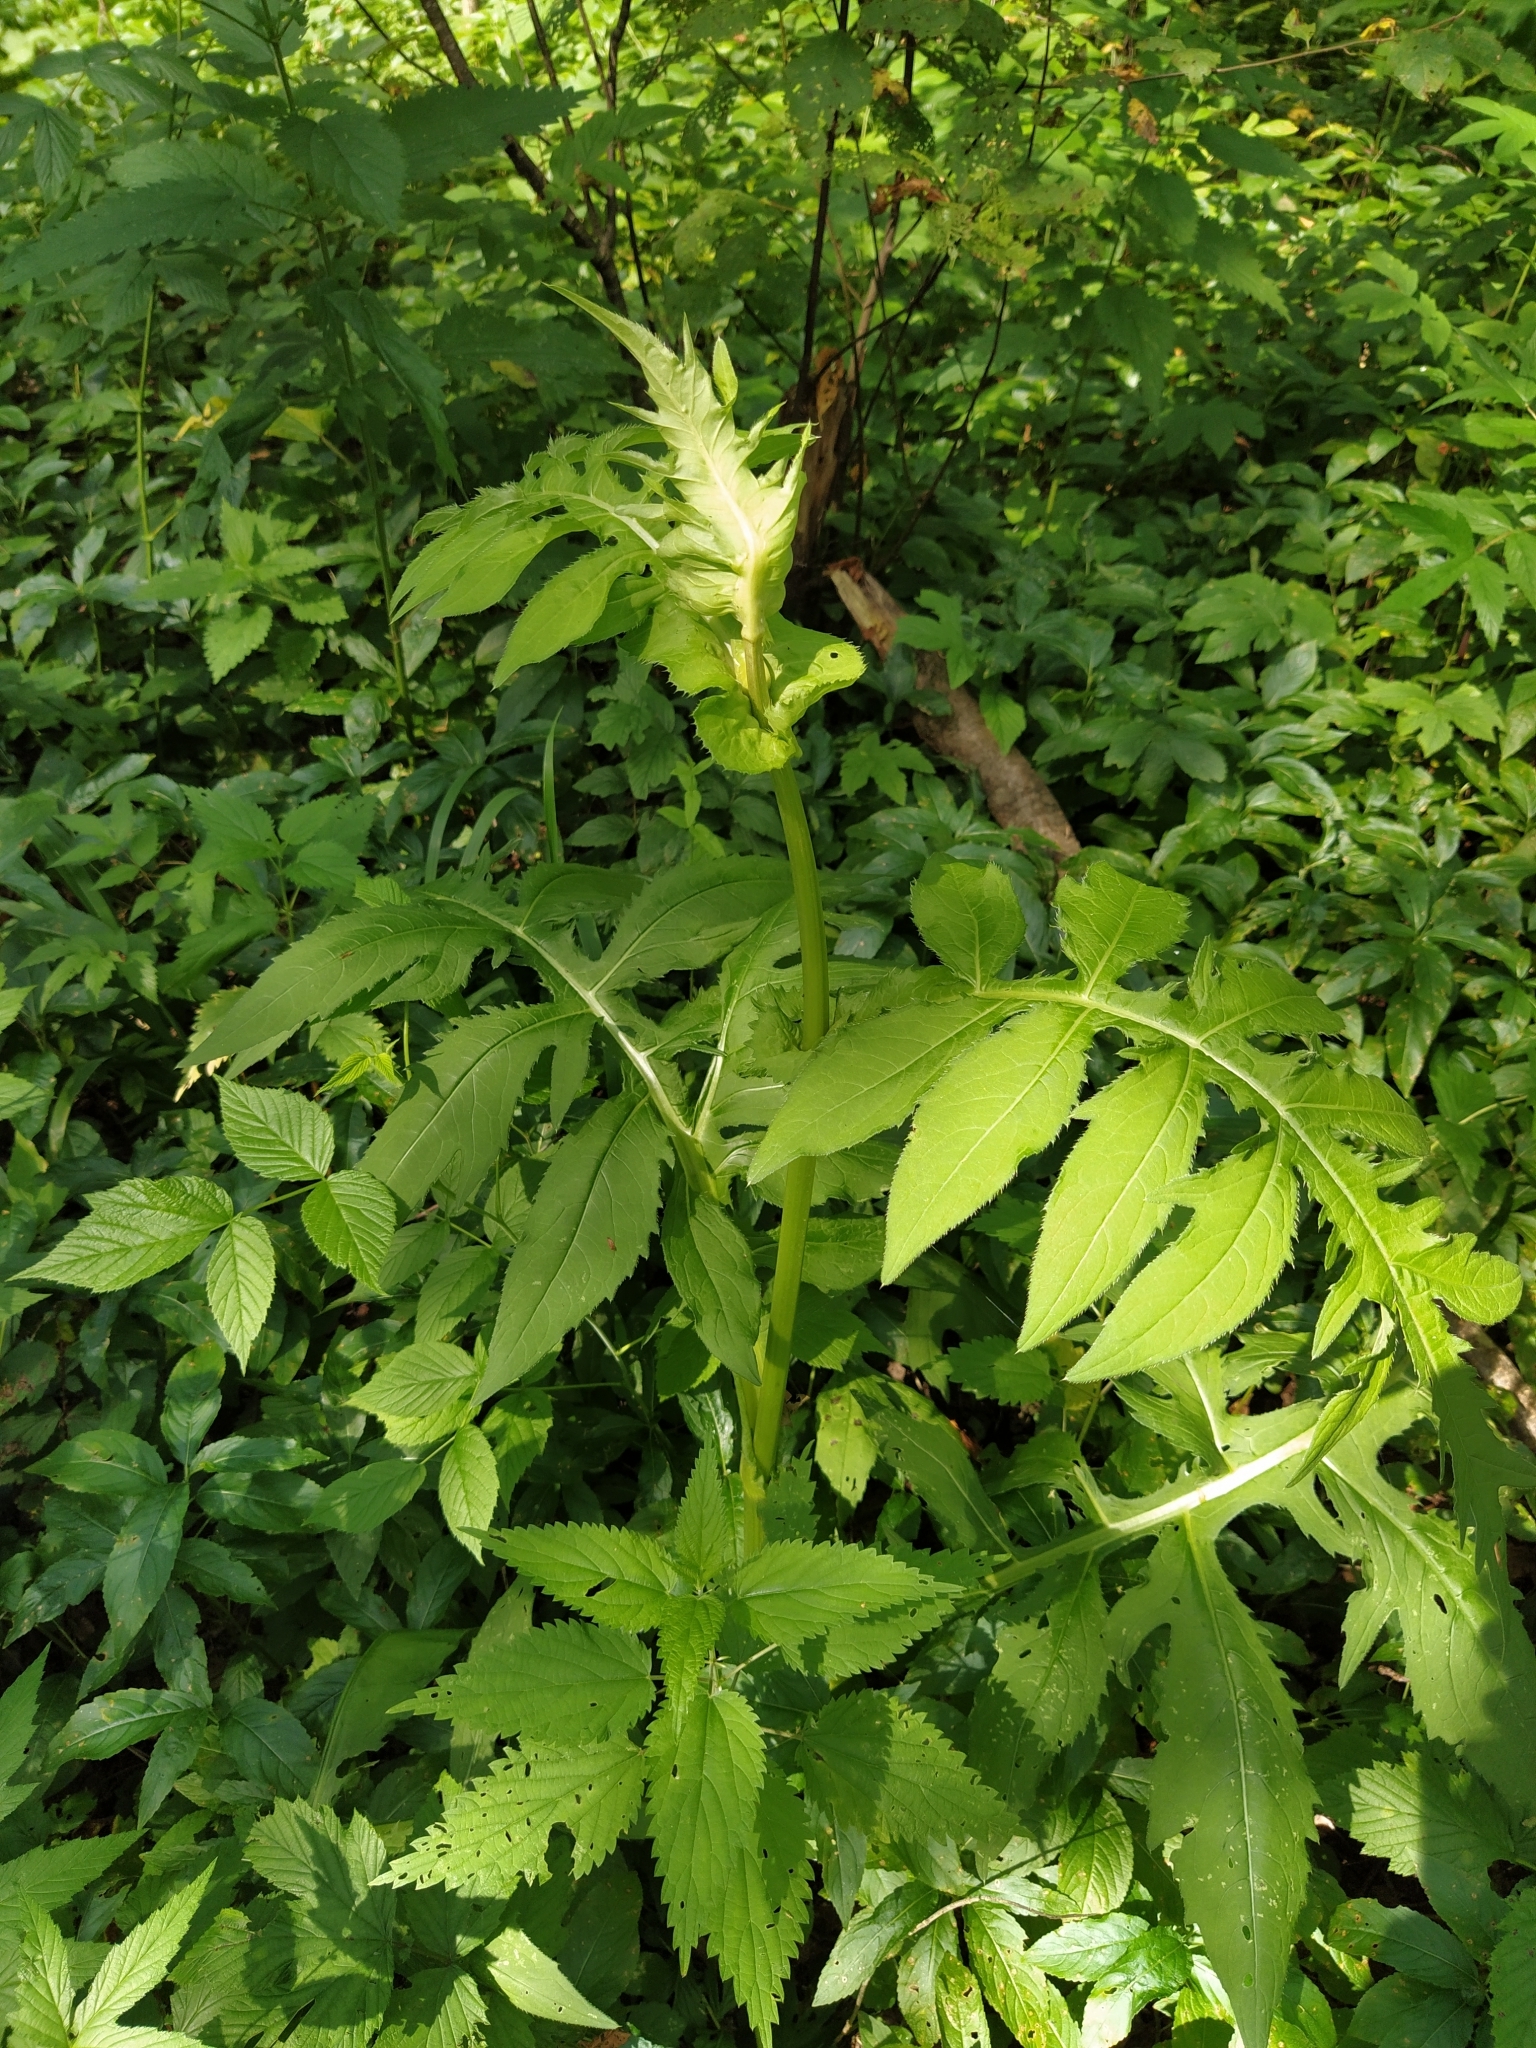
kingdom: Plantae
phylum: Tracheophyta
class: Magnoliopsida
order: Asterales
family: Asteraceae
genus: Cirsium
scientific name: Cirsium oleraceum
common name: Cabbage thistle
